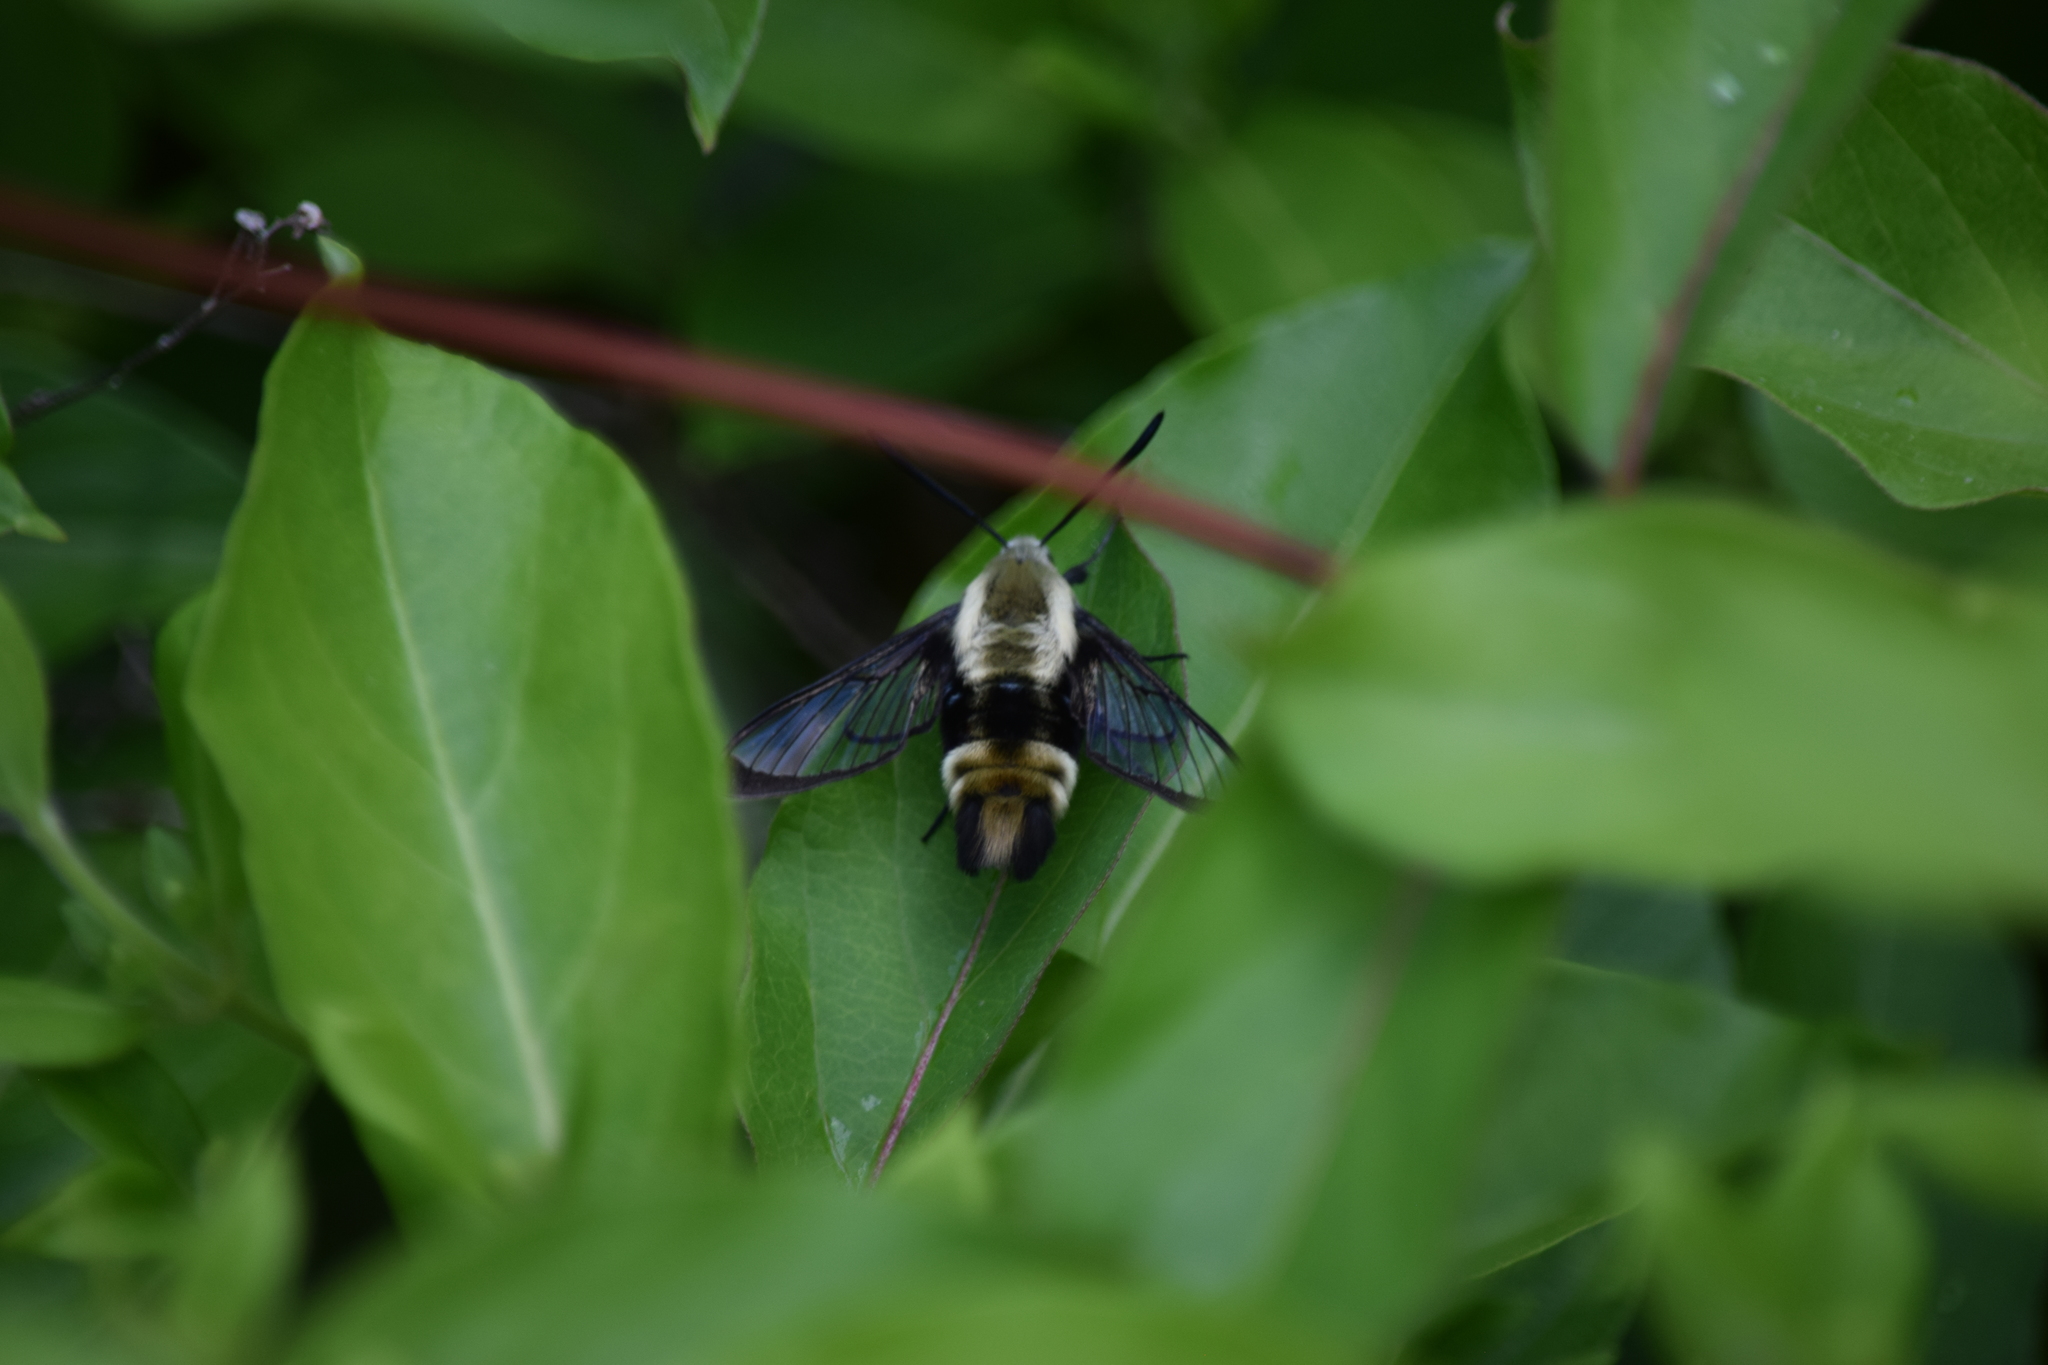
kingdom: Animalia
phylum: Arthropoda
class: Insecta
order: Lepidoptera
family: Sphingidae
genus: Hemaris
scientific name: Hemaris diffinis
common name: Bumblebee moth
